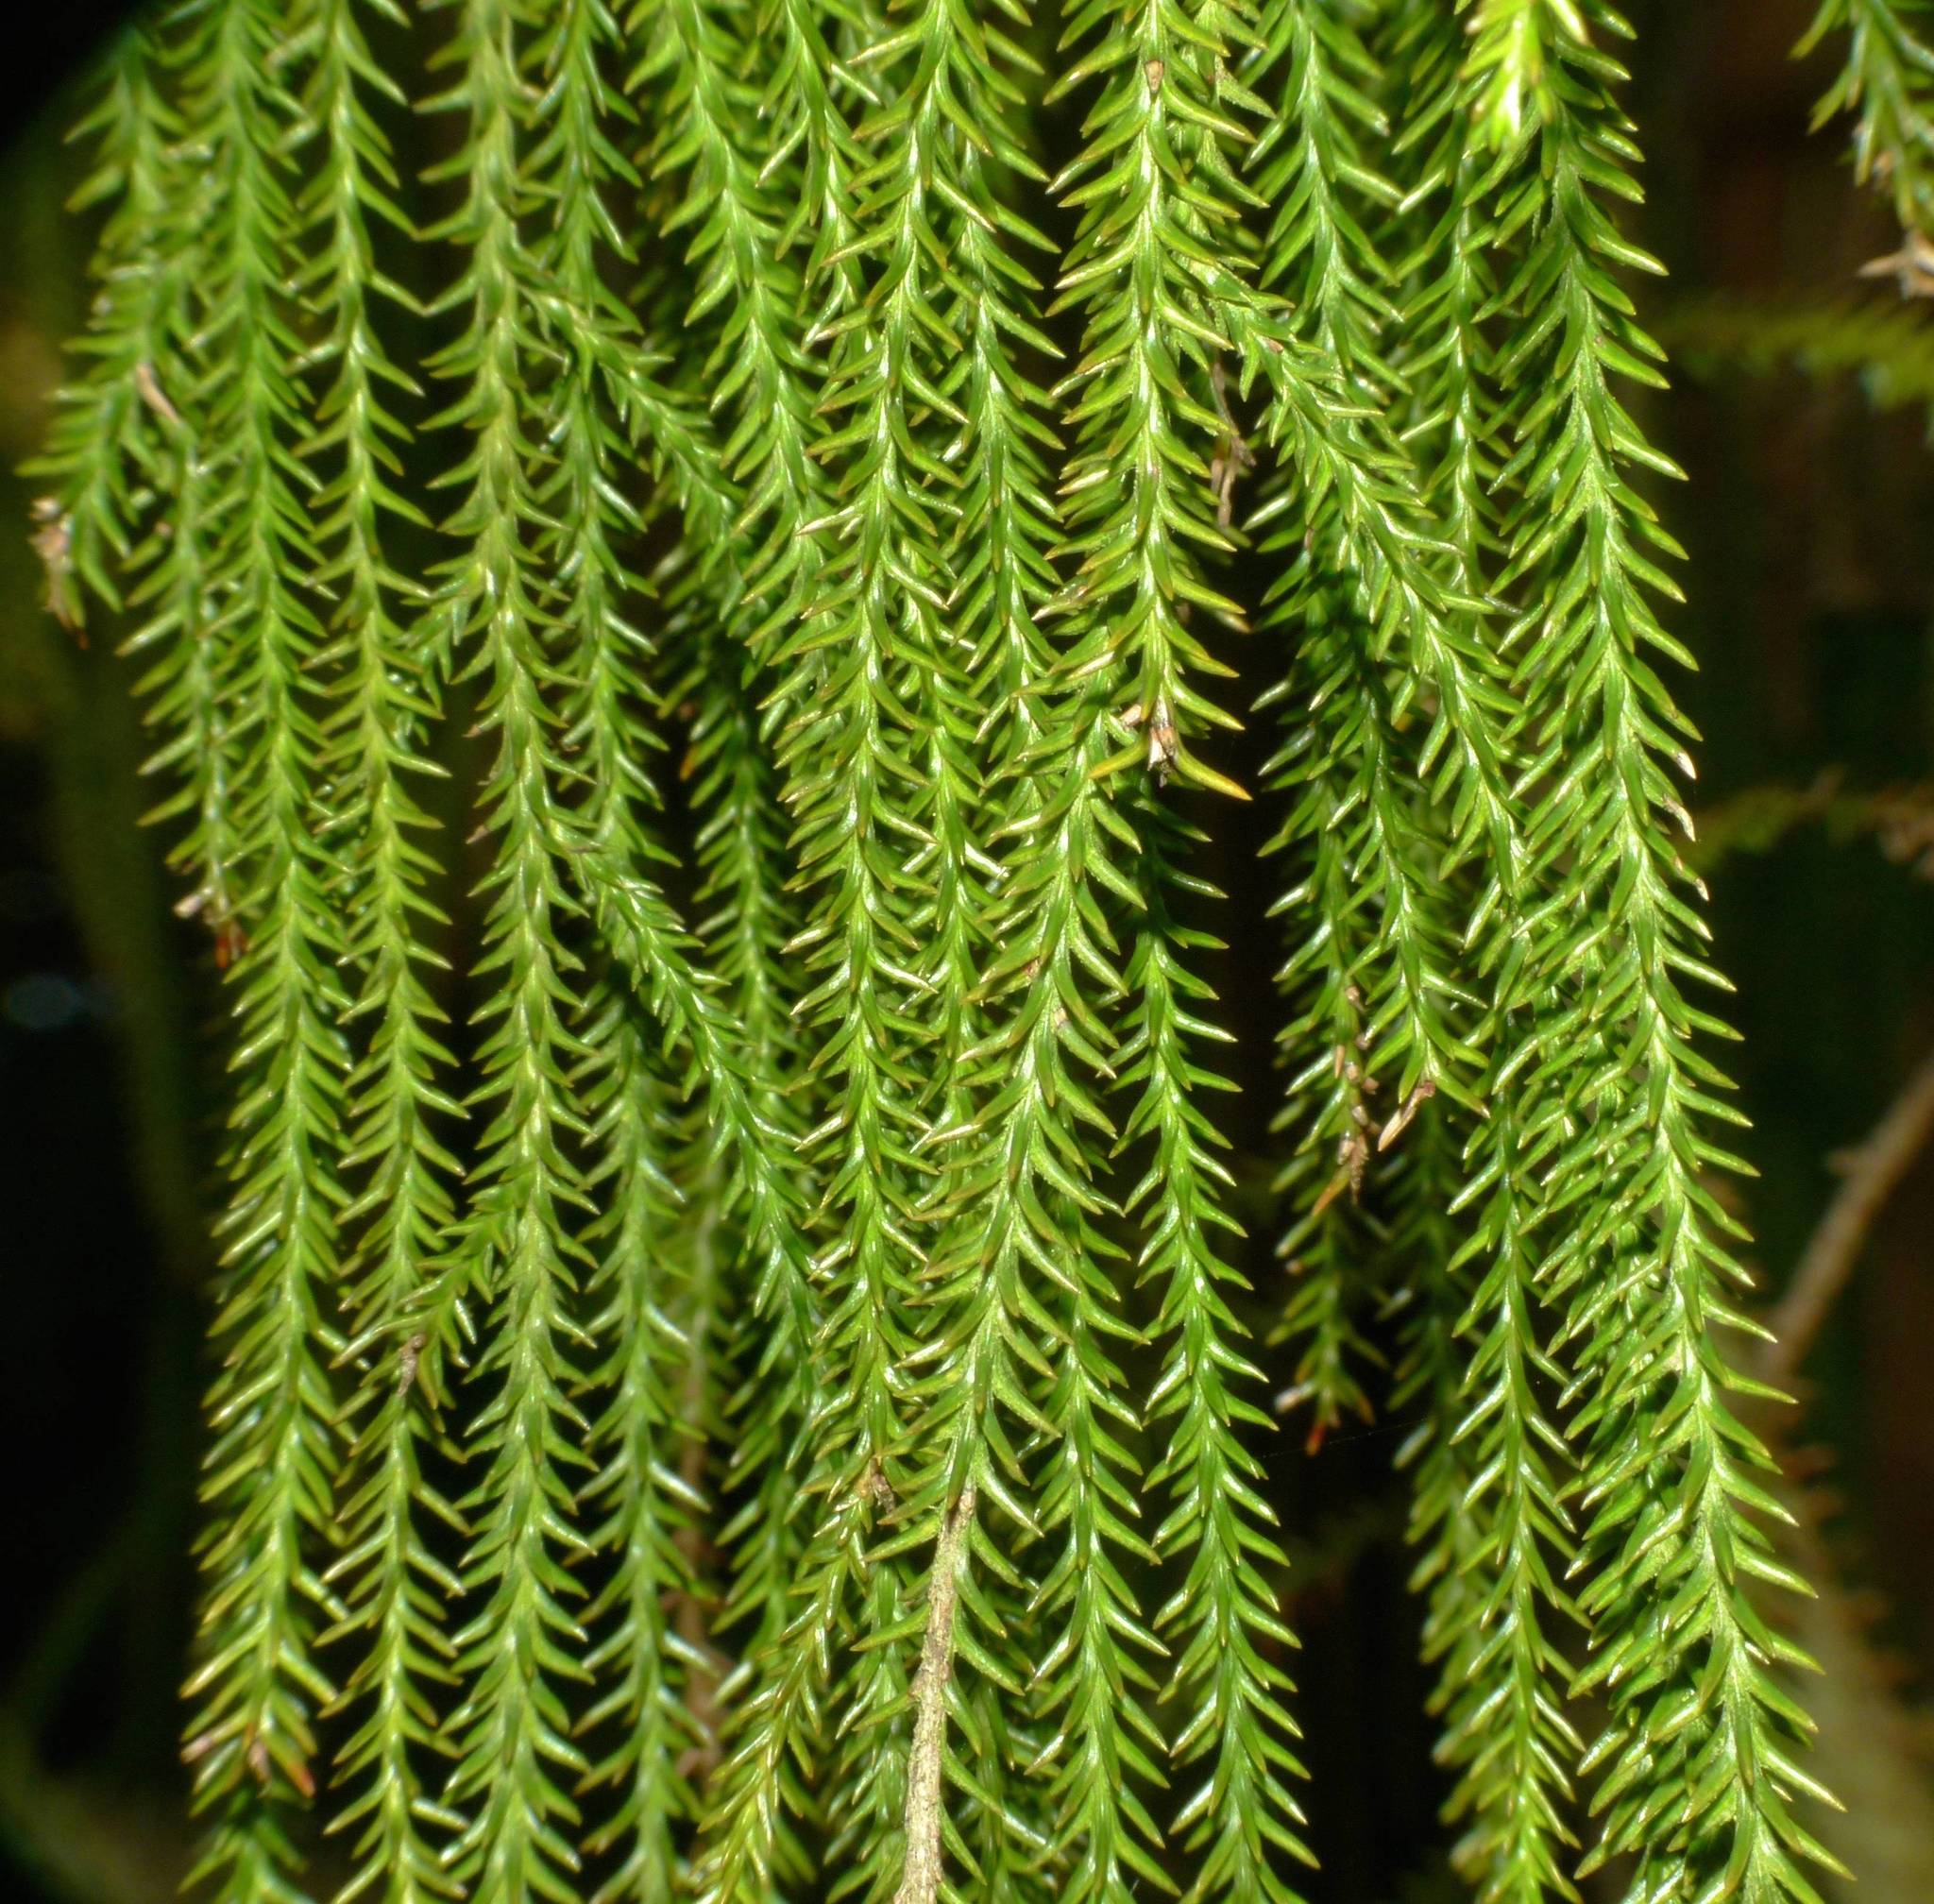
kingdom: Plantae
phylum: Tracheophyta
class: Pinopsida
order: Pinales
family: Podocarpaceae
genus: Dacrydium
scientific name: Dacrydium cupressinum
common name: Red pine
